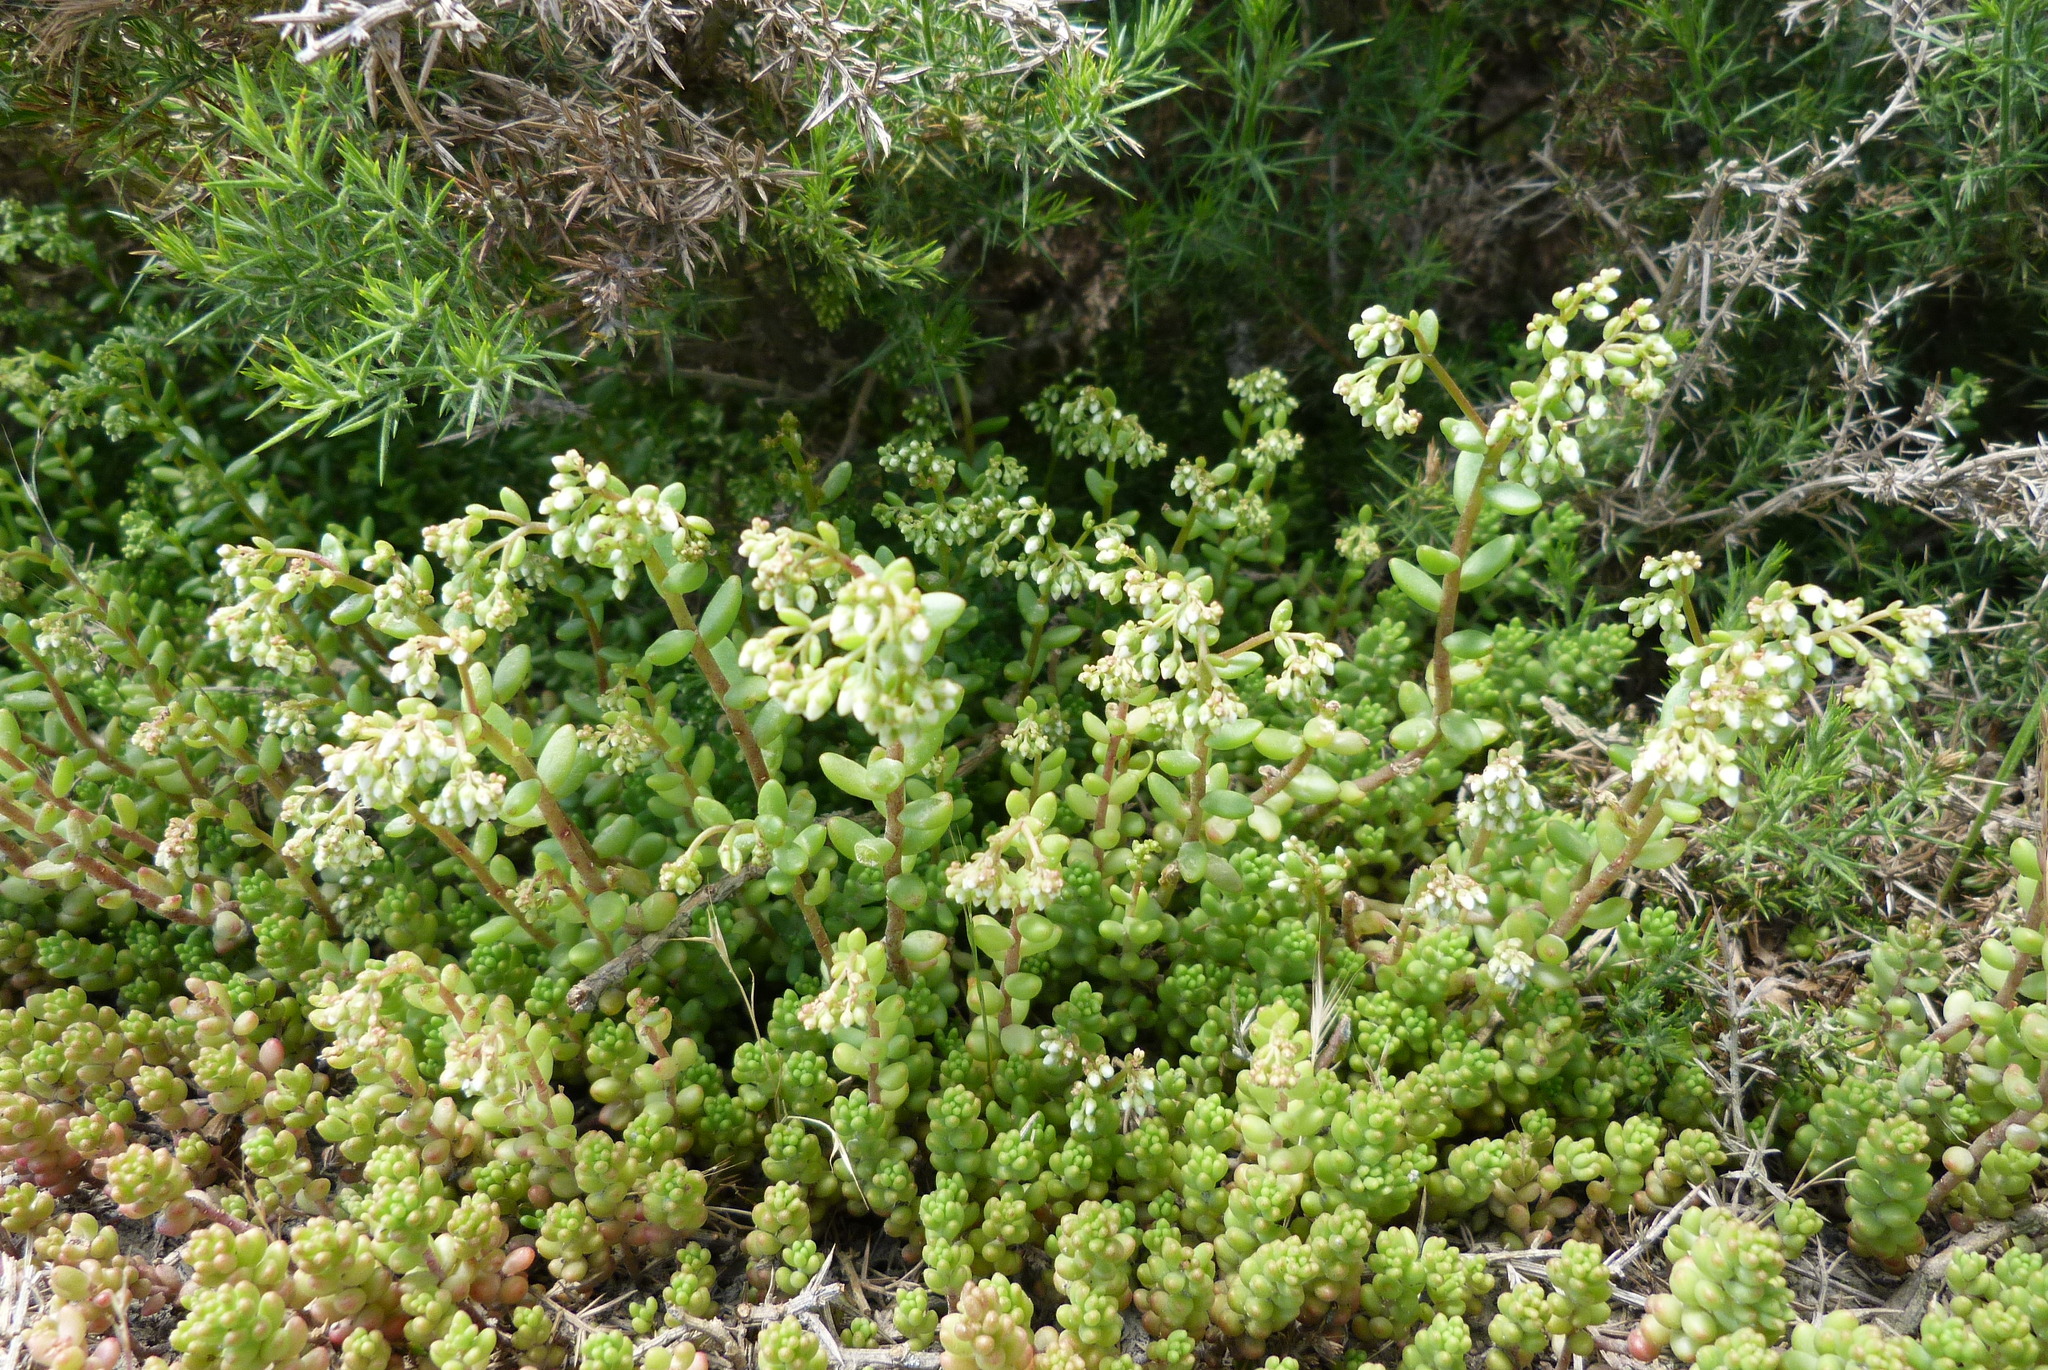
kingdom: Plantae
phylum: Tracheophyta
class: Magnoliopsida
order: Saxifragales
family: Crassulaceae
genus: Sedum
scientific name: Sedum album
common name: White stonecrop
